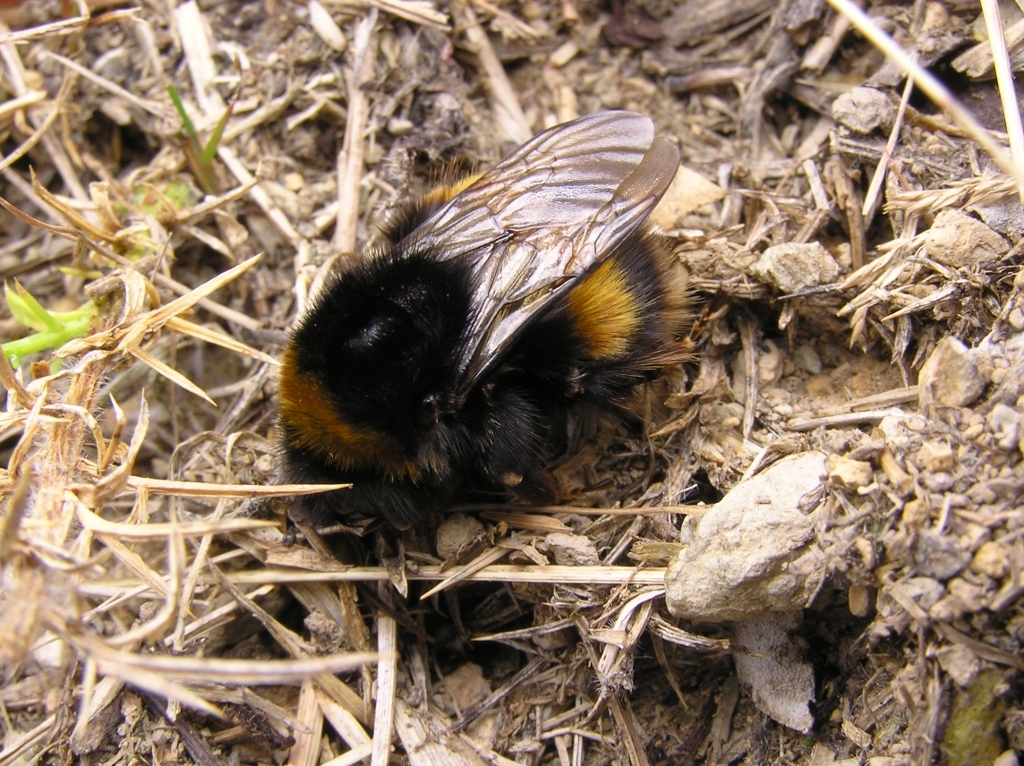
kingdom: Animalia
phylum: Arthropoda
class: Insecta
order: Hymenoptera
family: Apidae
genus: Bombus
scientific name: Bombus terrestris
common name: Buff-tailed bumblebee
